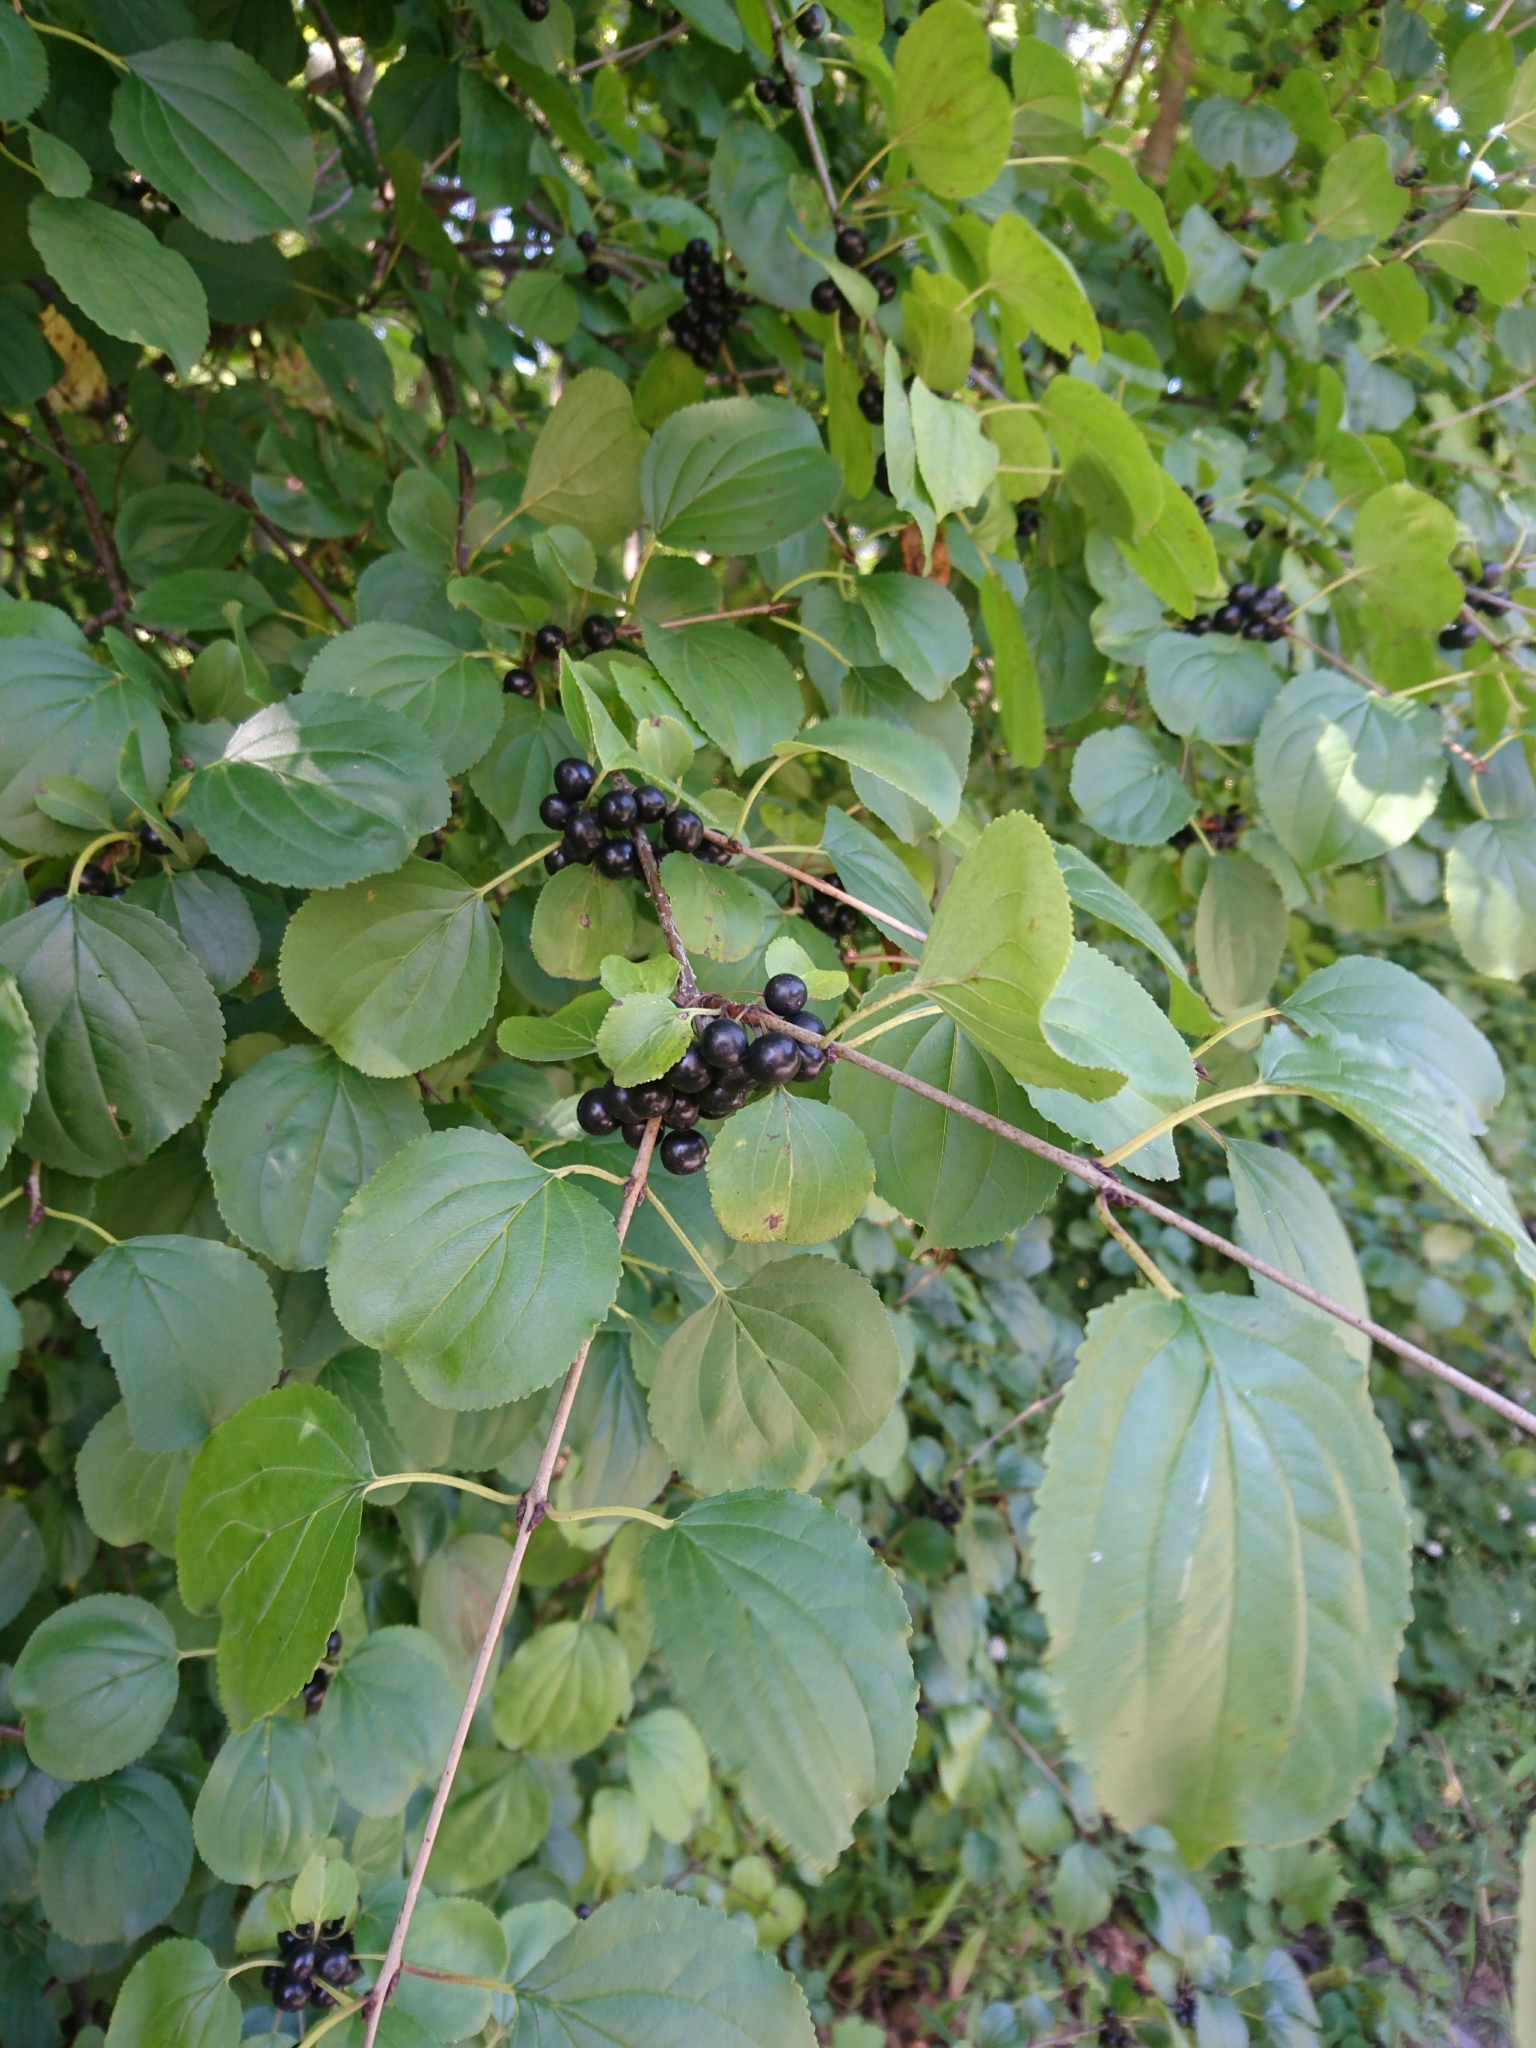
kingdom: Plantae
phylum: Tracheophyta
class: Magnoliopsida
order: Rosales
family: Rhamnaceae
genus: Rhamnus
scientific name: Rhamnus cathartica
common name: Common buckthorn
